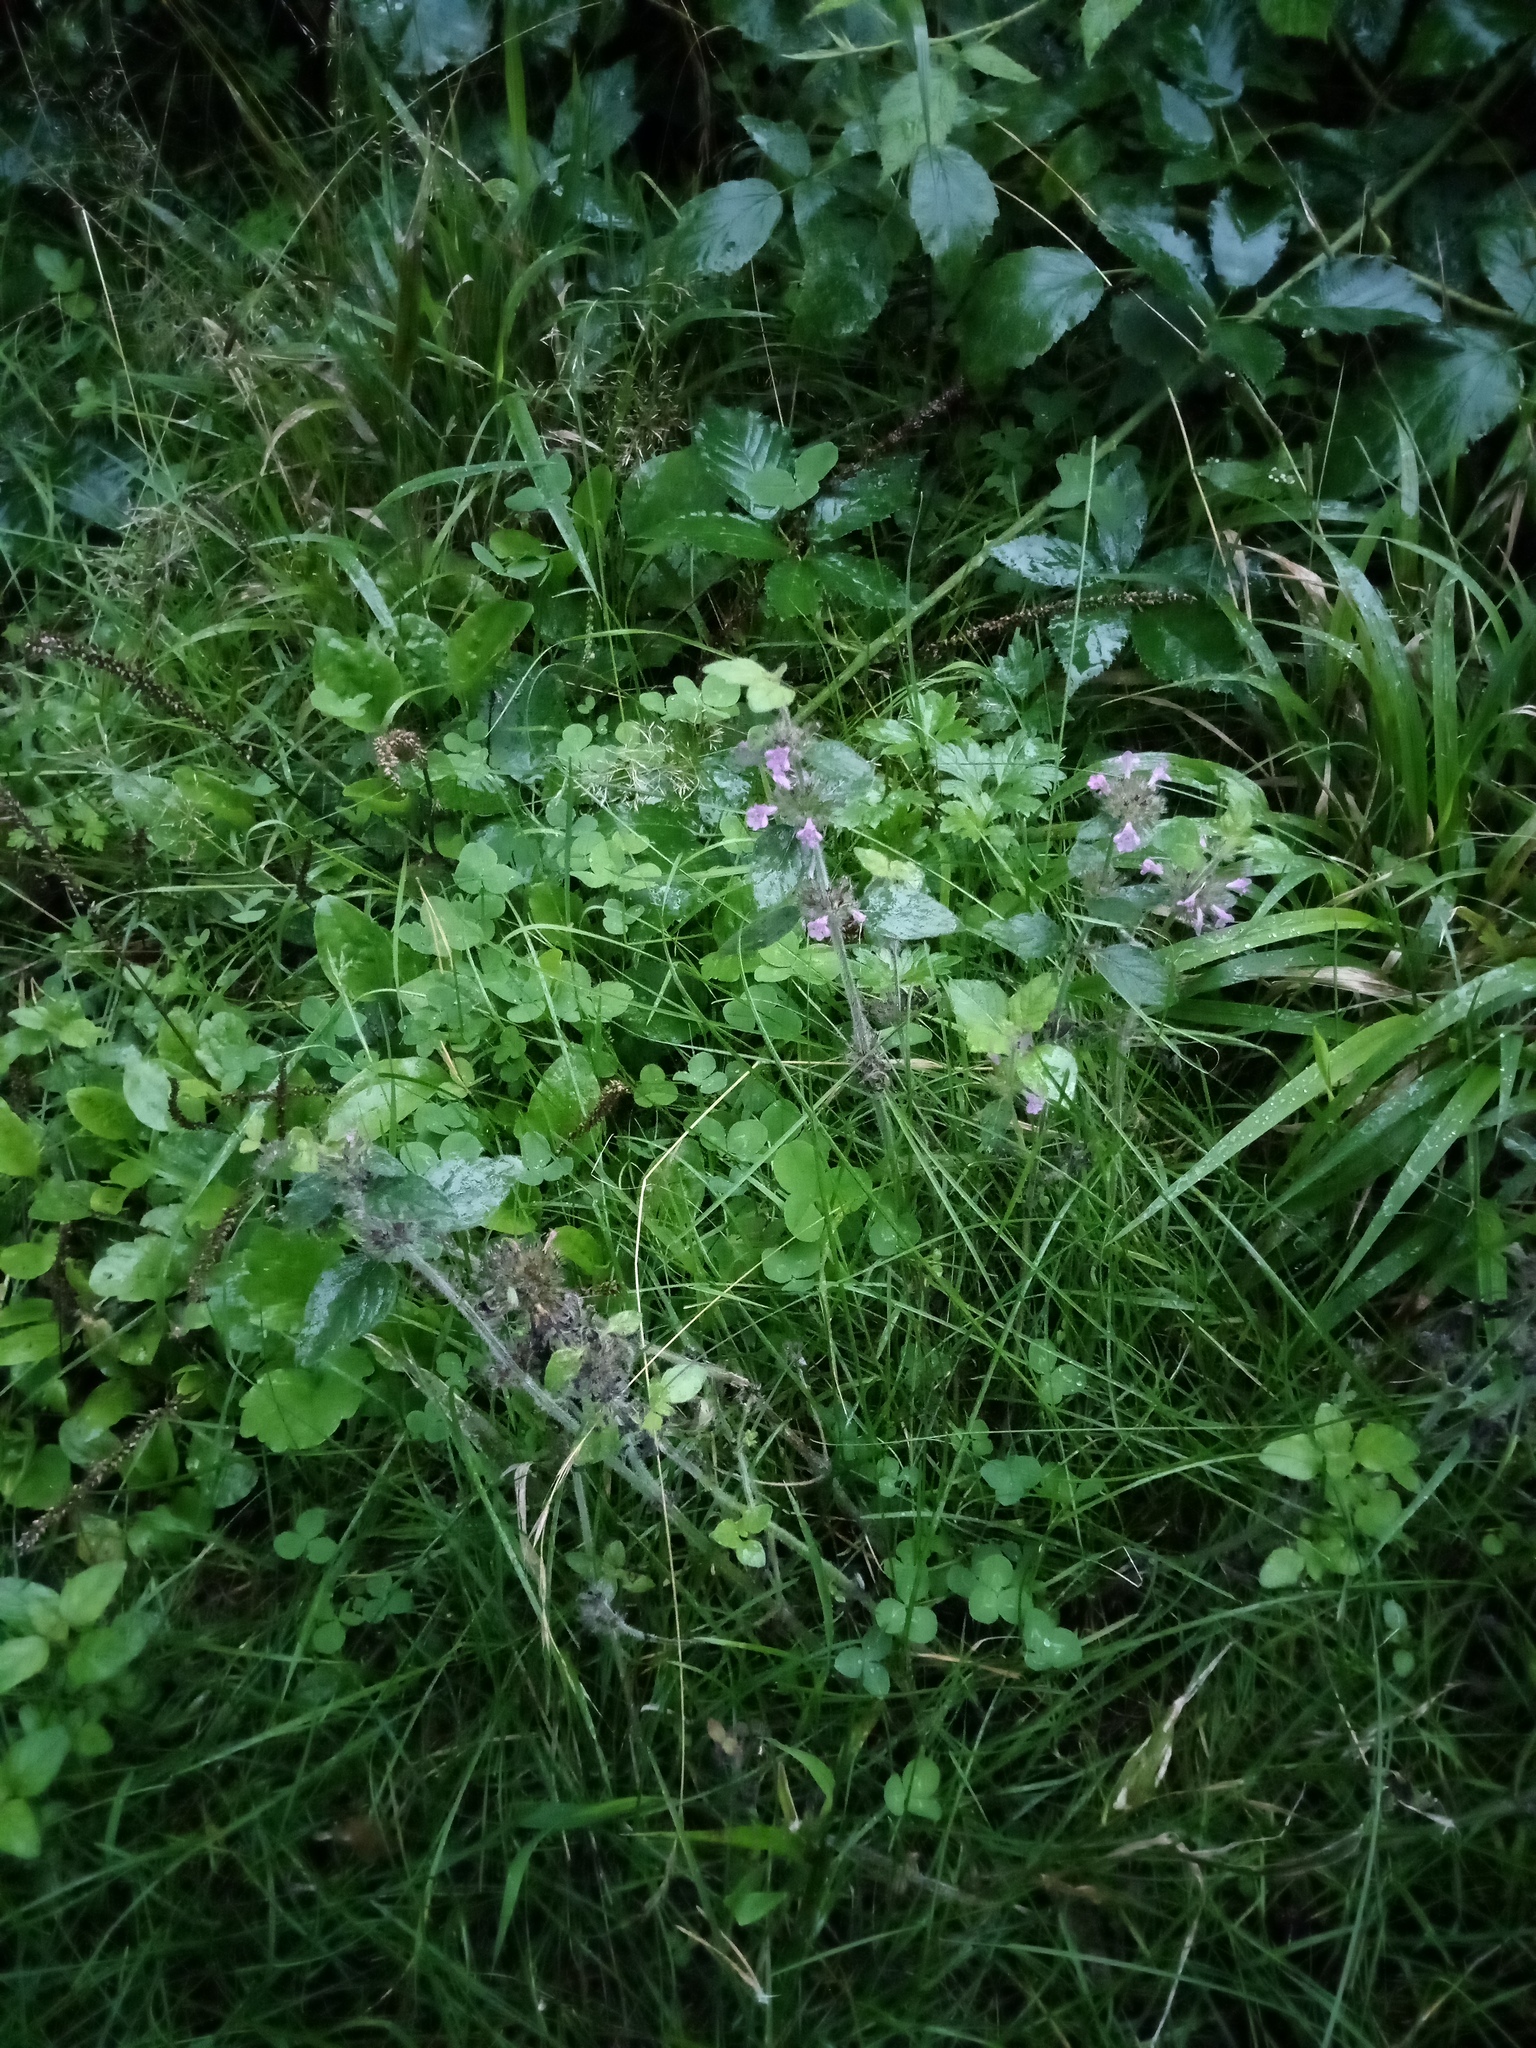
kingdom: Plantae
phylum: Tracheophyta
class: Magnoliopsida
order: Lamiales
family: Lamiaceae
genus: Clinopodium
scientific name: Clinopodium vulgare
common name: Wild basil
